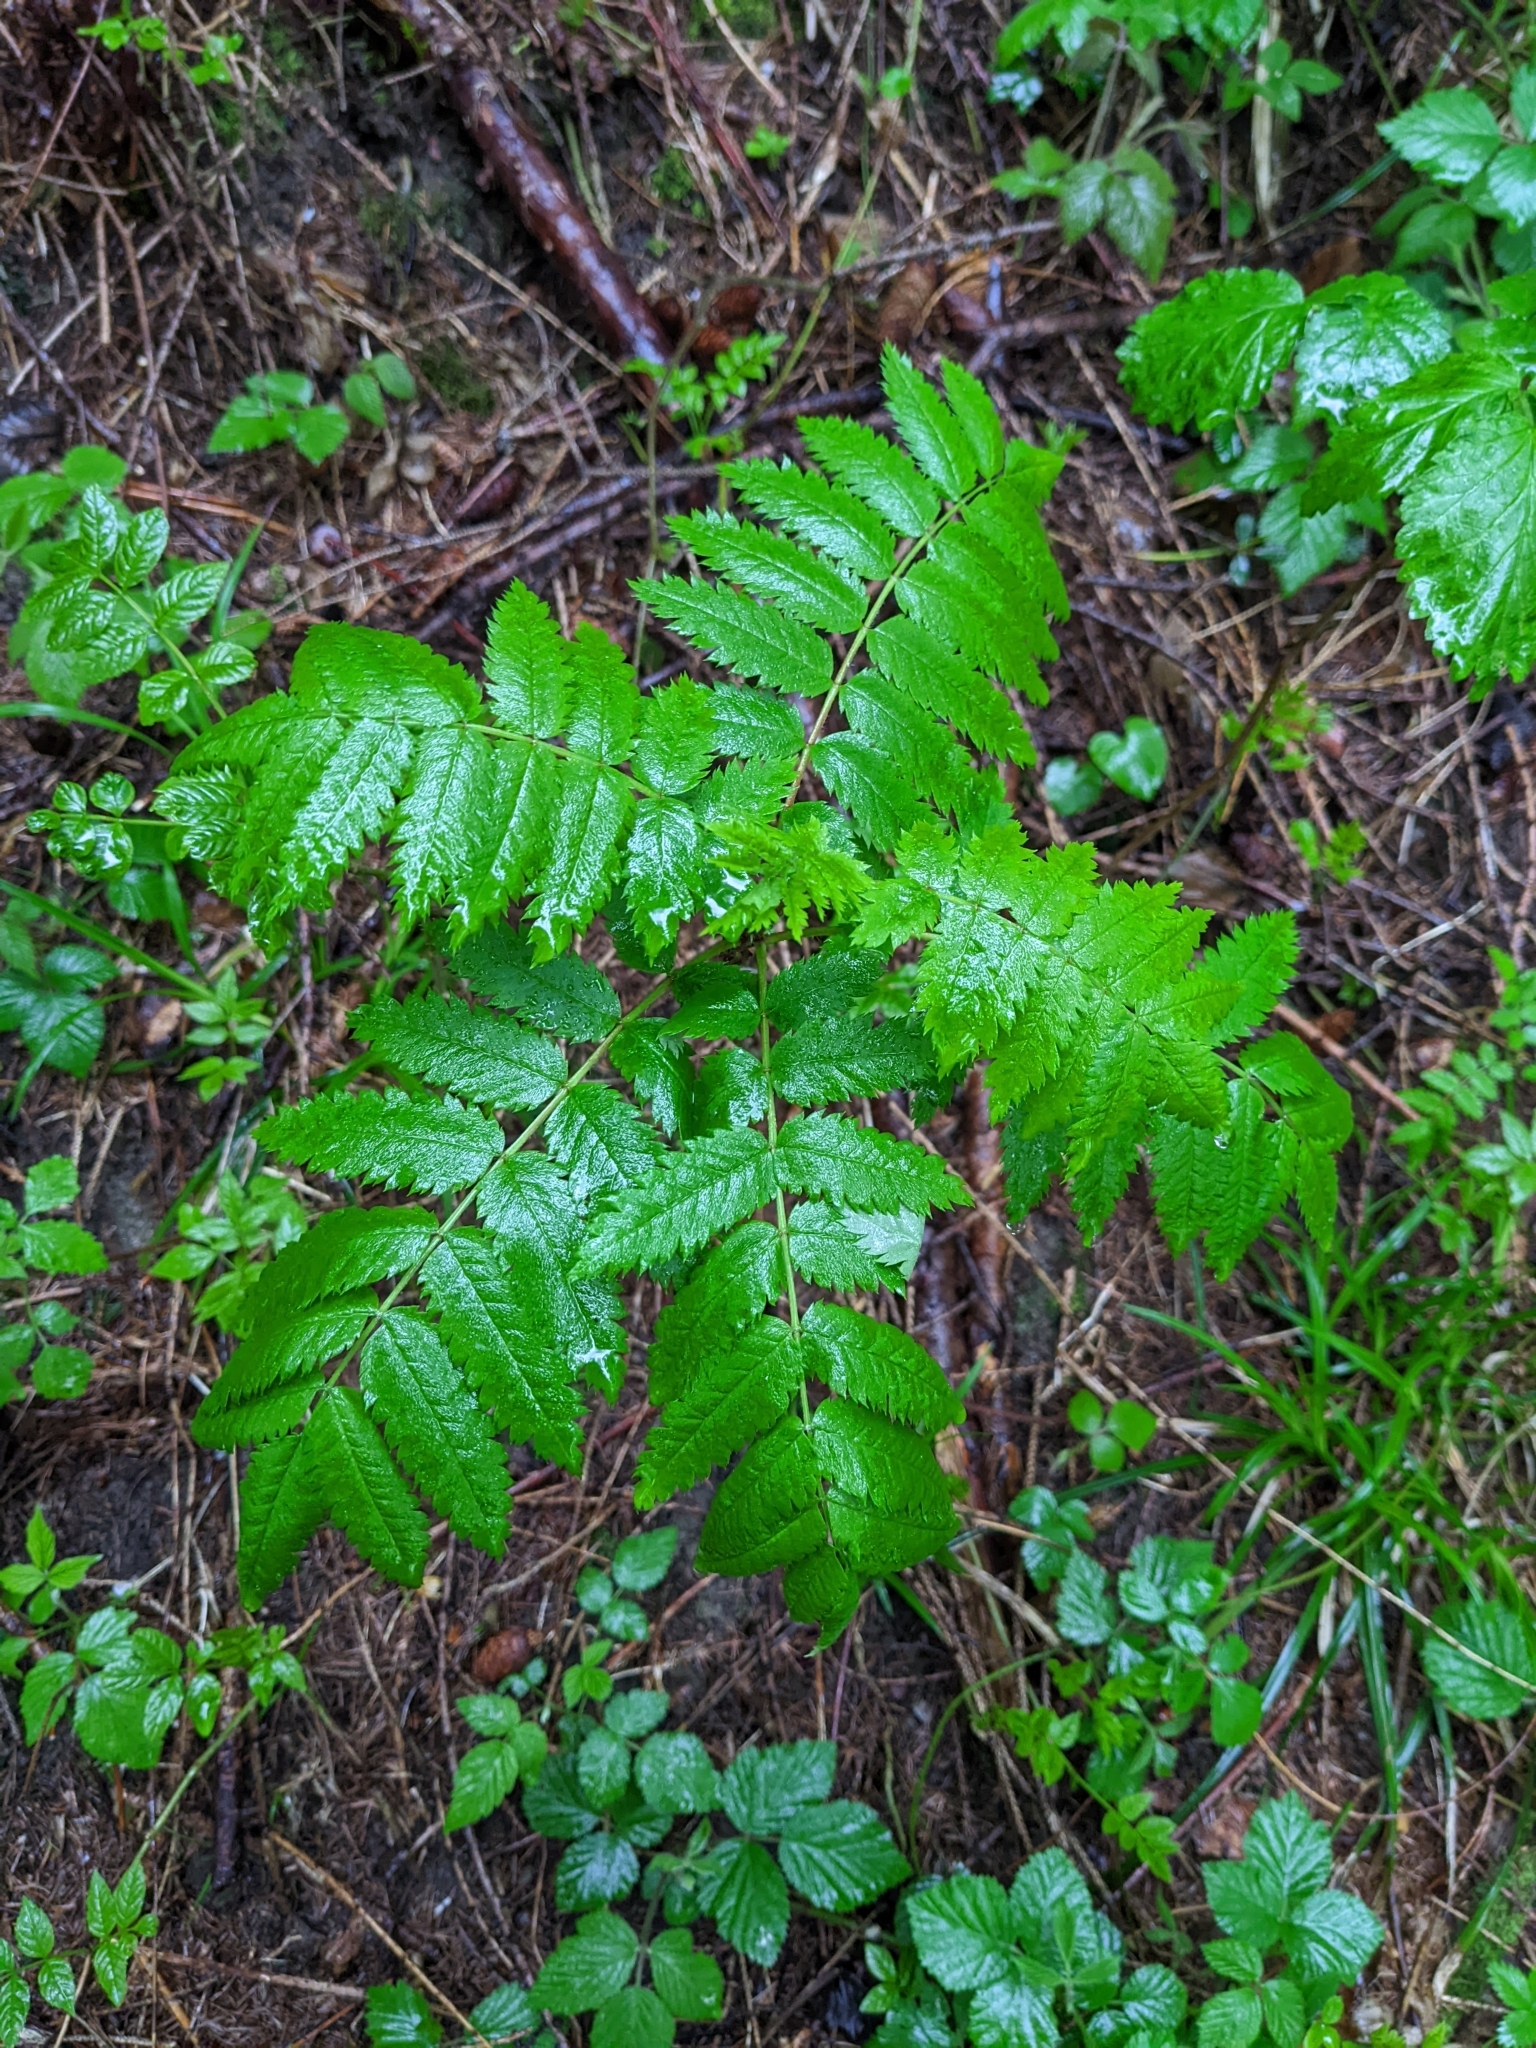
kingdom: Plantae
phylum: Tracheophyta
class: Magnoliopsida
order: Rosales
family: Rosaceae
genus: Sorbus
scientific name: Sorbus aucuparia
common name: Rowan
